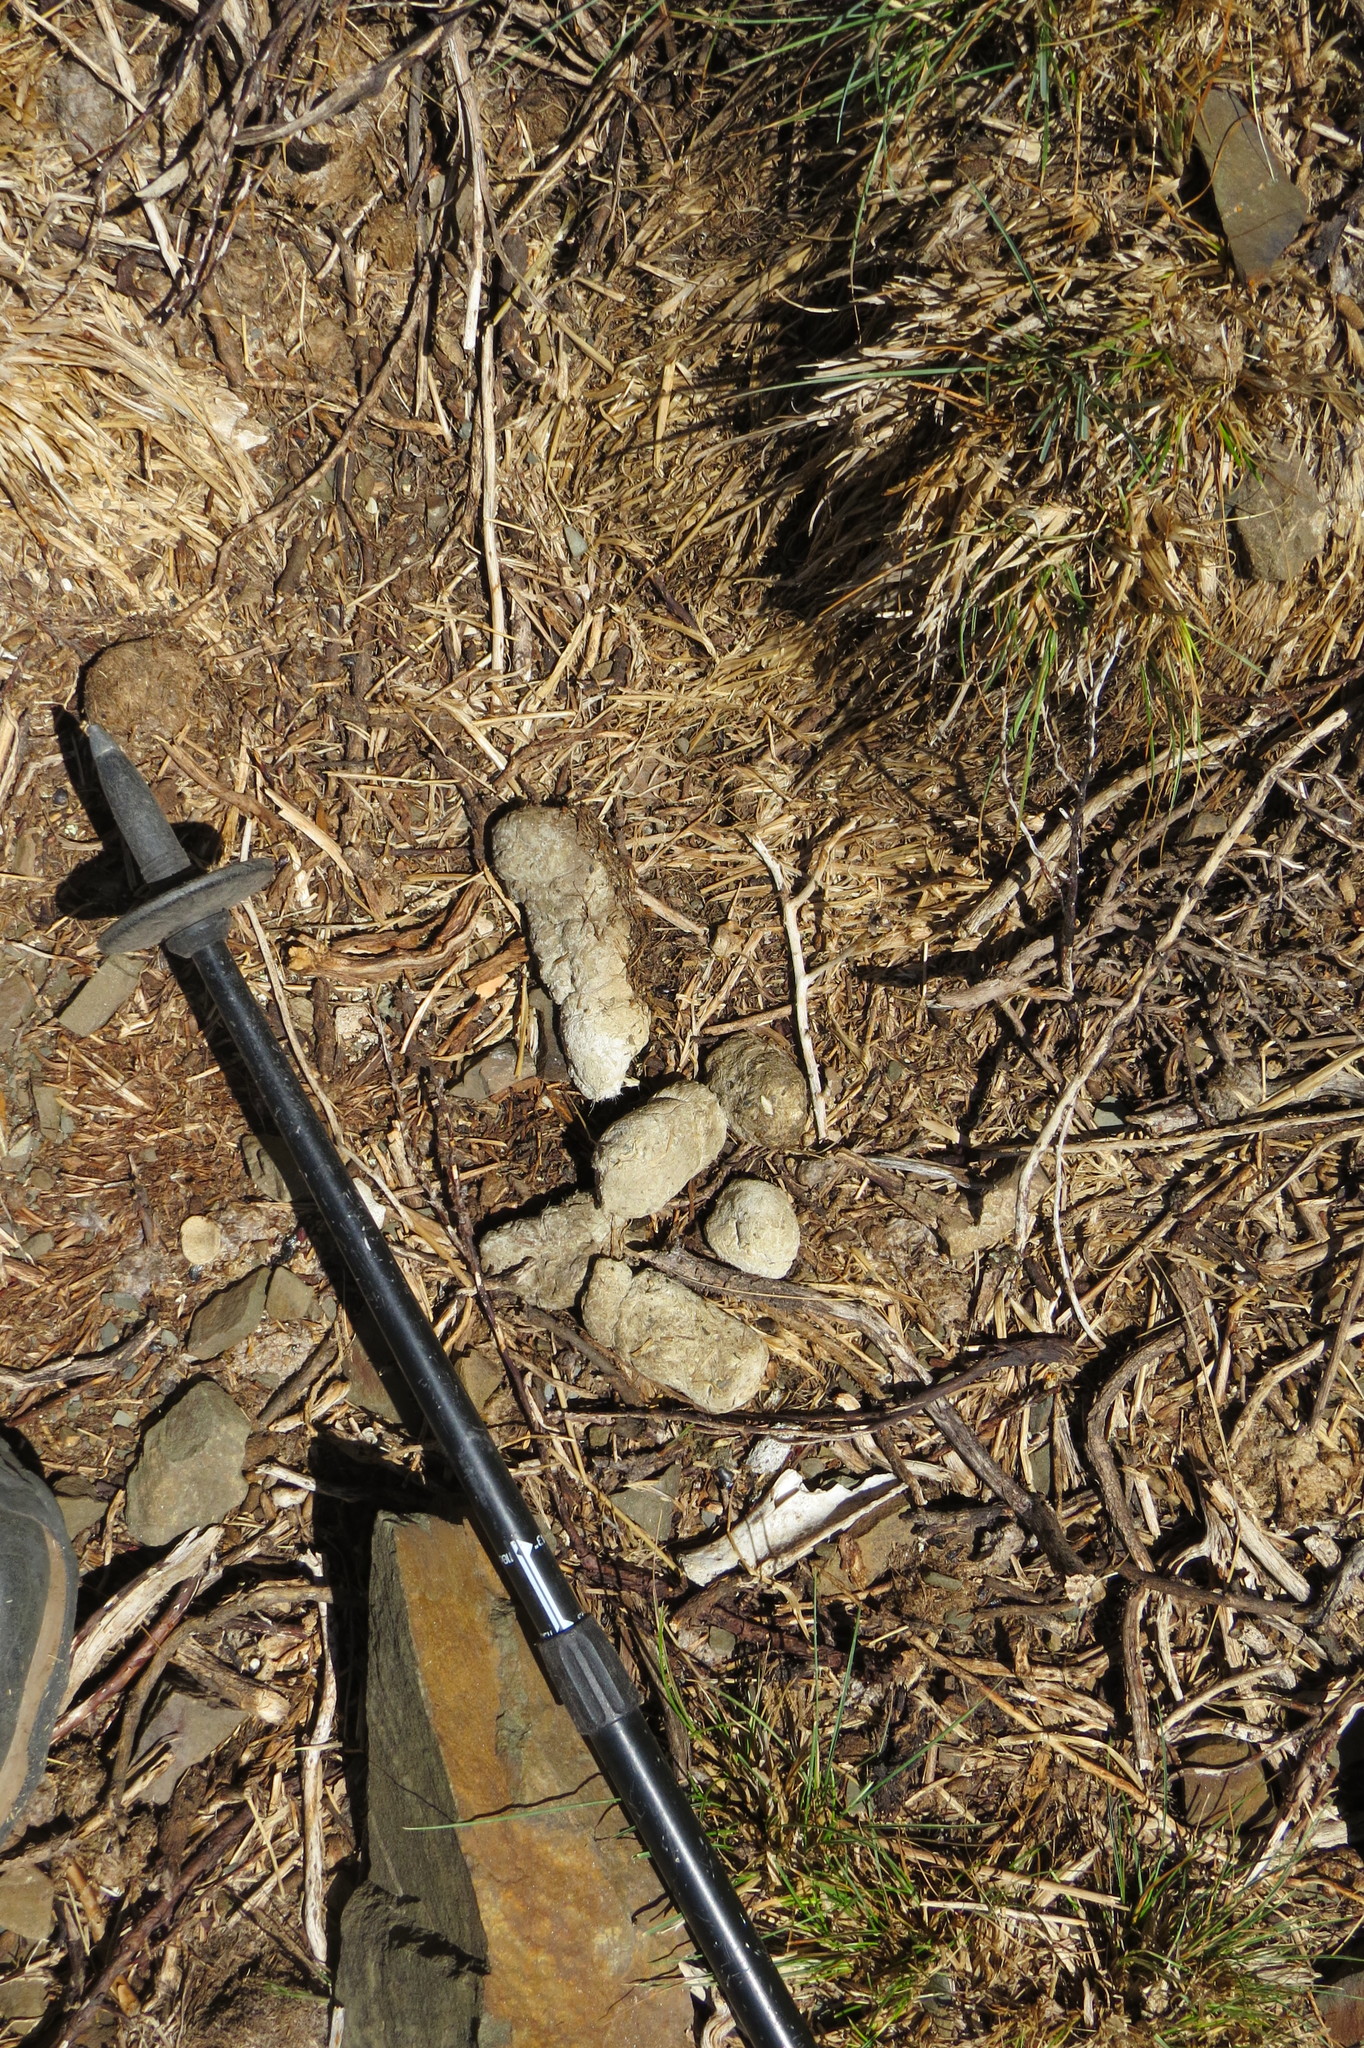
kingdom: Animalia
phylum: Chordata
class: Mammalia
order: Carnivora
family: Felidae
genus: Puma
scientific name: Puma concolor
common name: Puma
